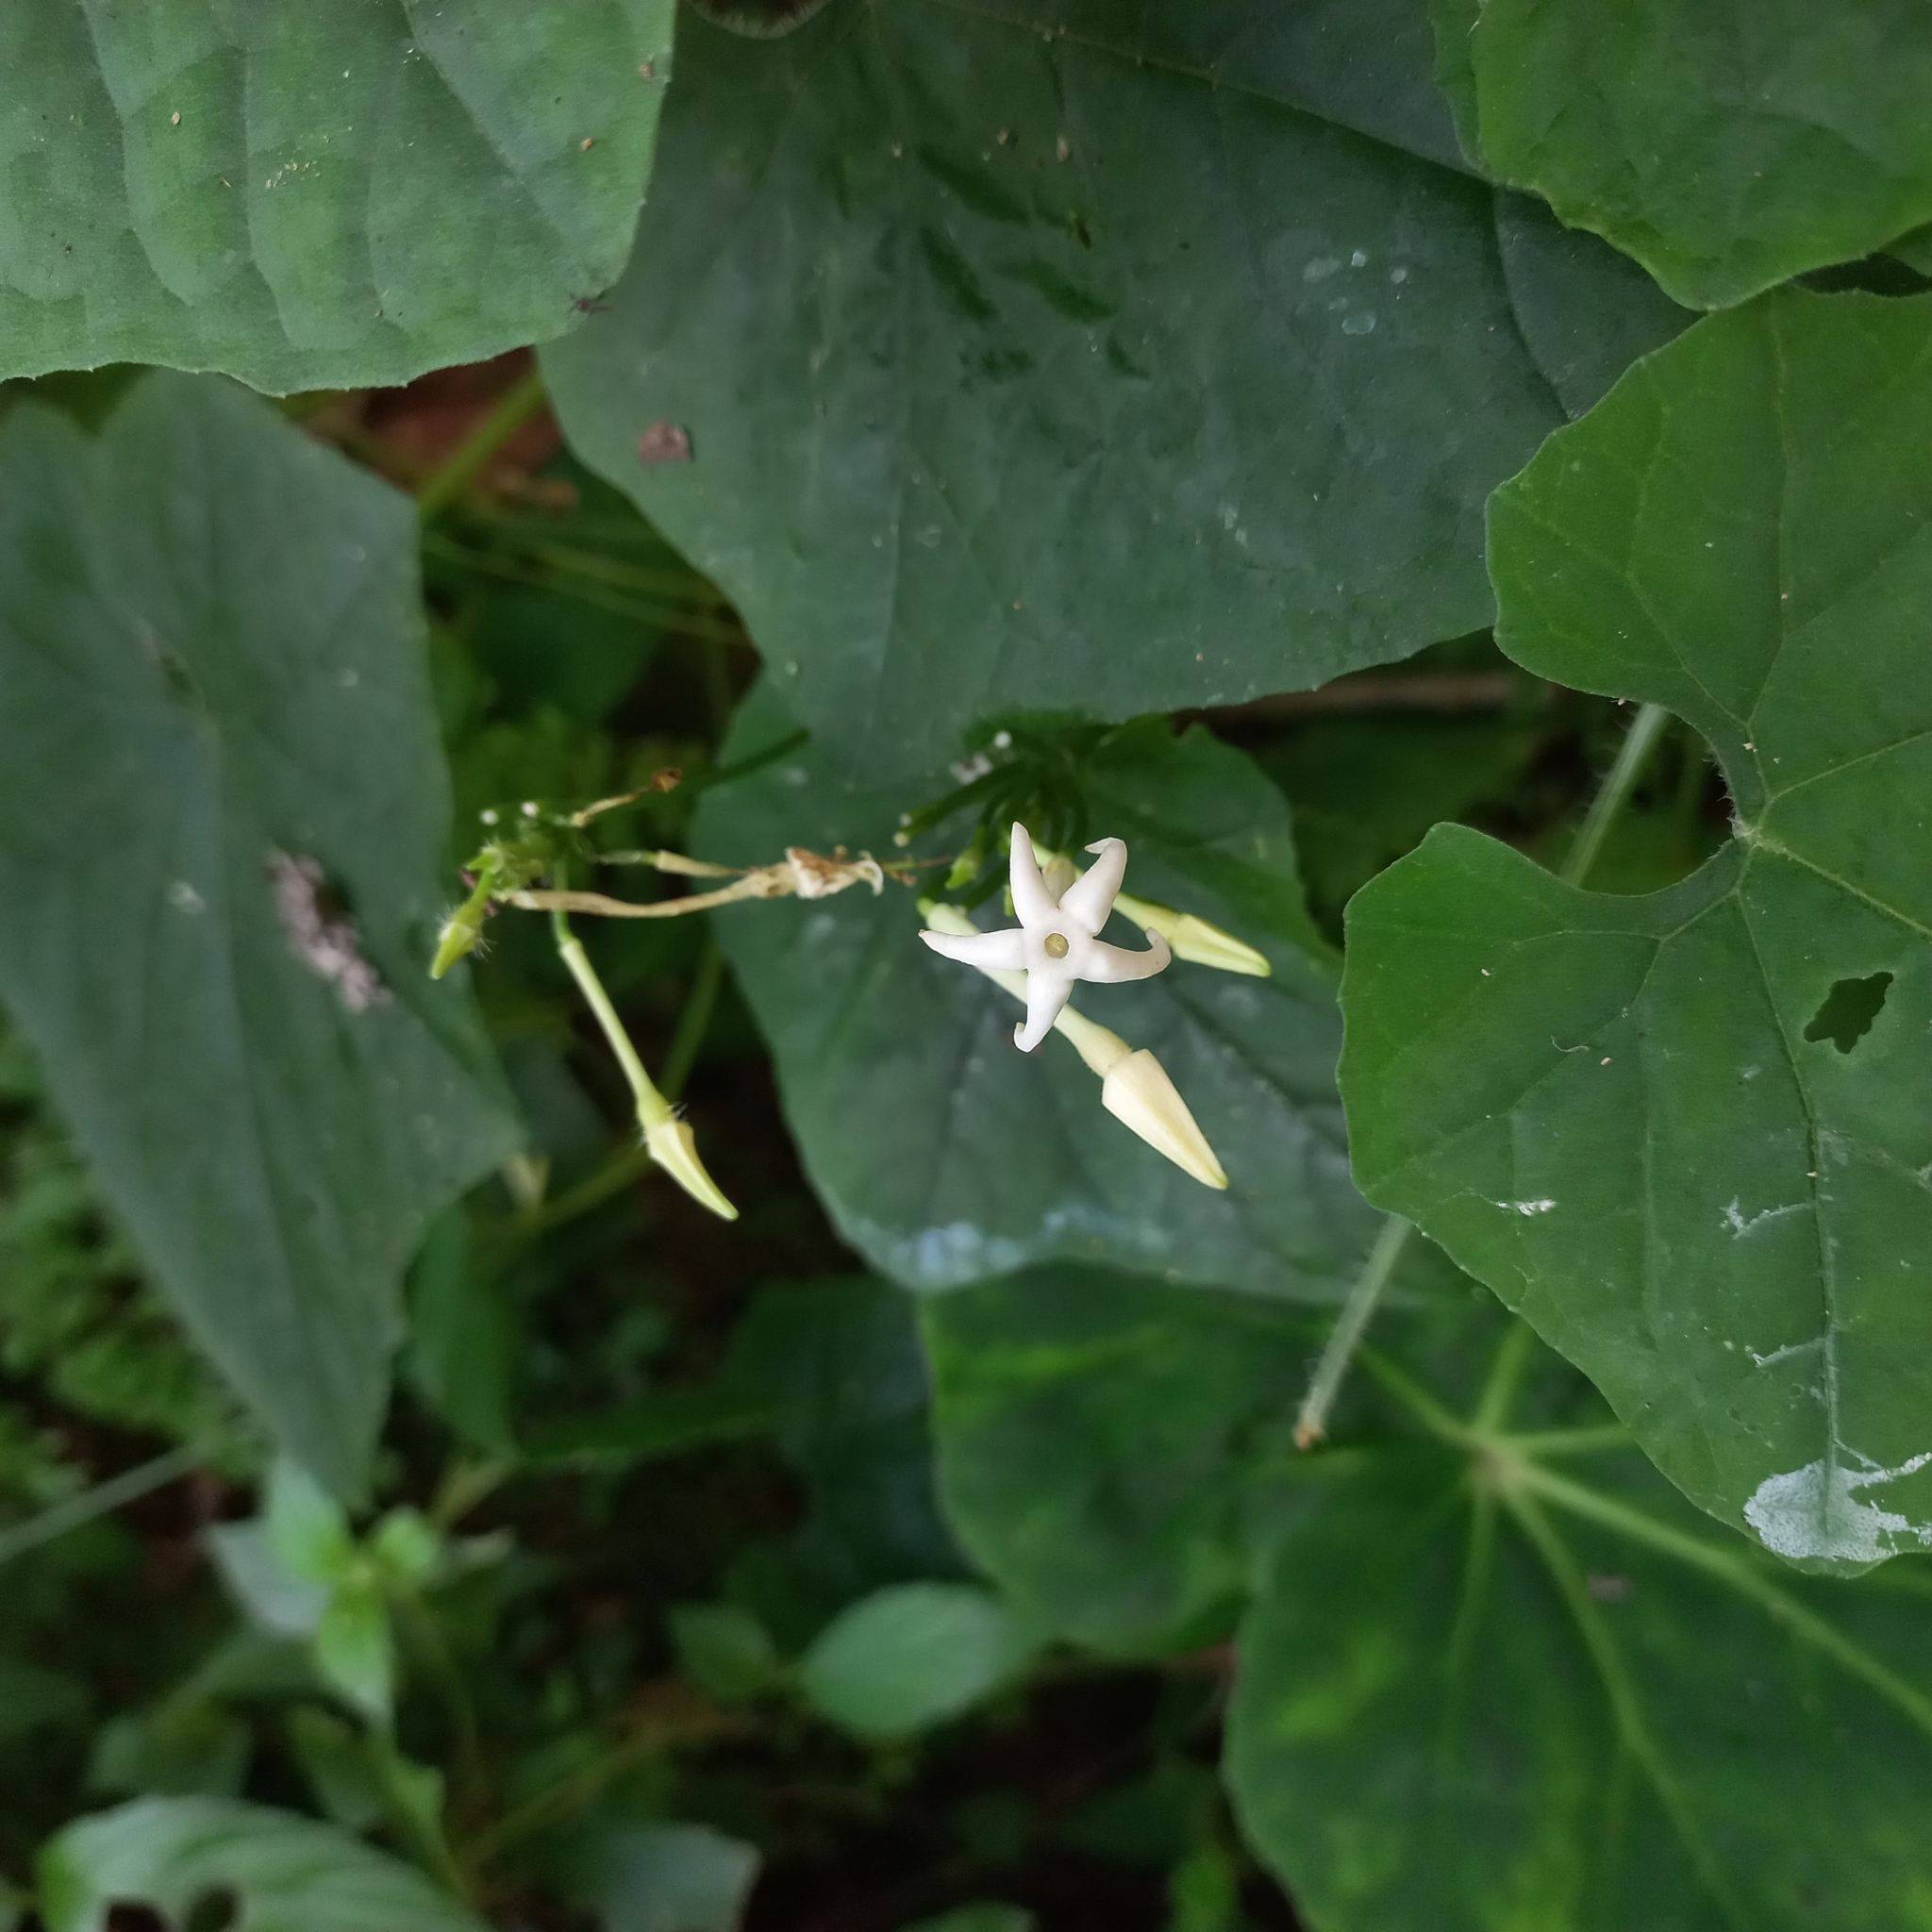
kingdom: Plantae
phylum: Tracheophyta
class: Magnoliopsida
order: Cucurbitales
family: Cucurbitaceae
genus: Cyclanthera
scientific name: Cyclanthera carthagenensis
